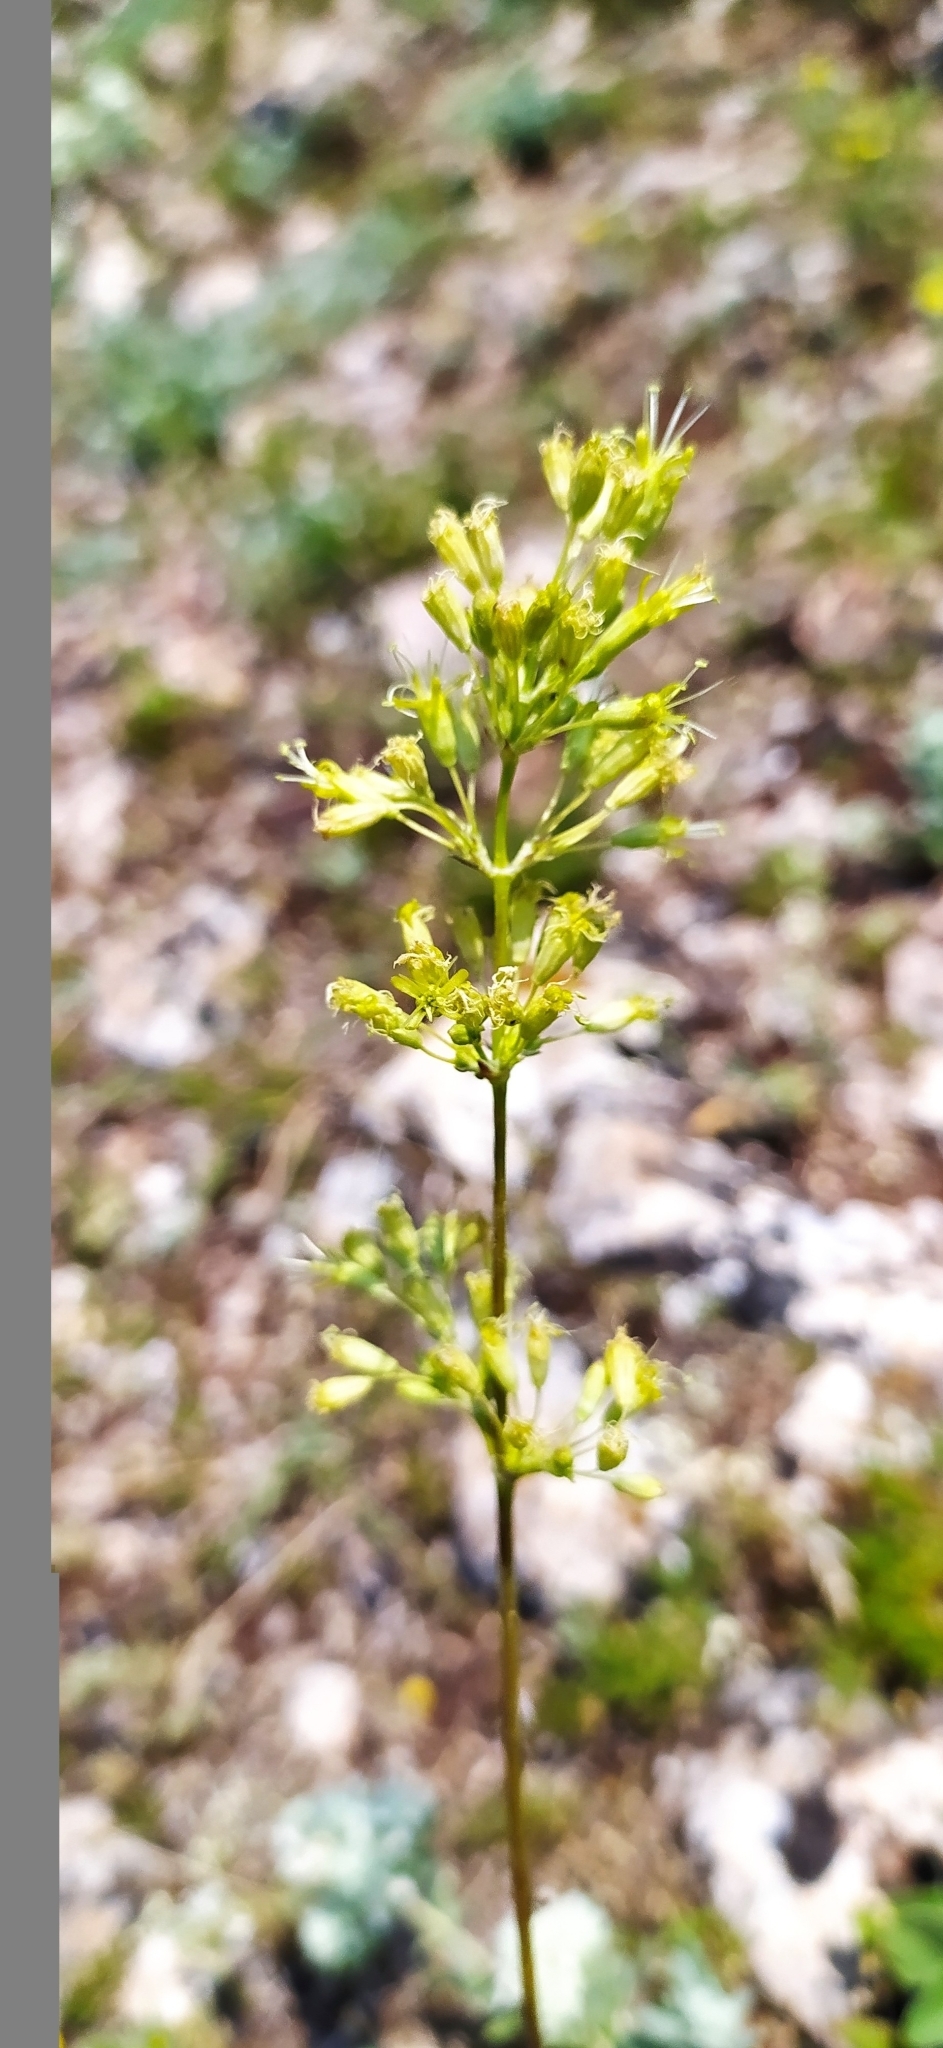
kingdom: Plantae
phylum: Tracheophyta
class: Magnoliopsida
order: Caryophyllales
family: Caryophyllaceae
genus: Silene
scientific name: Silene densiflora
